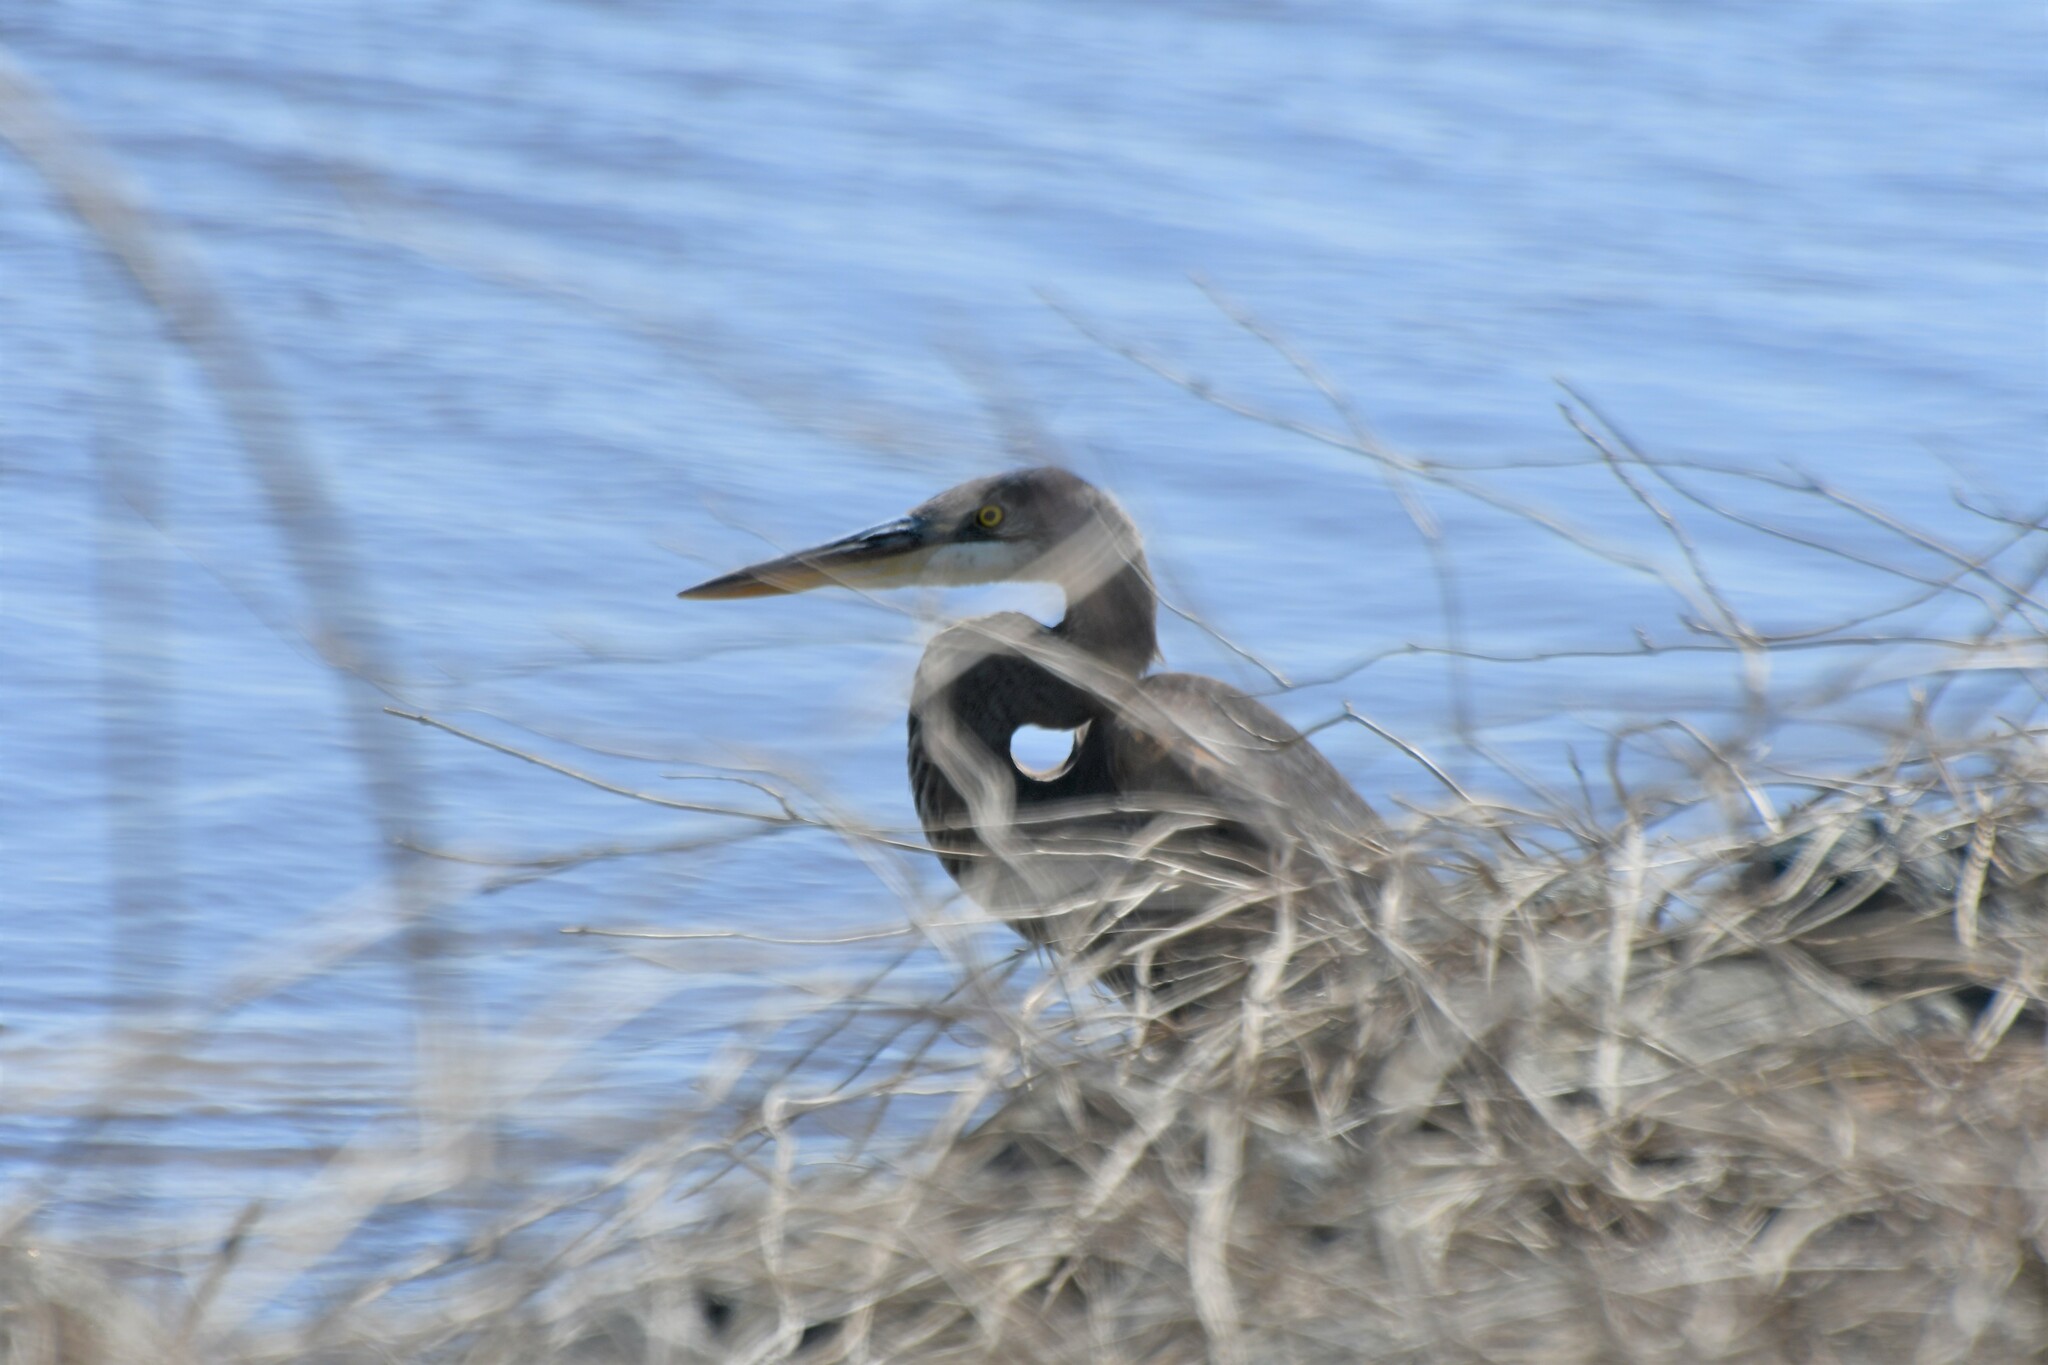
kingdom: Animalia
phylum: Chordata
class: Aves
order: Pelecaniformes
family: Ardeidae
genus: Ardea
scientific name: Ardea herodias
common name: Great blue heron
